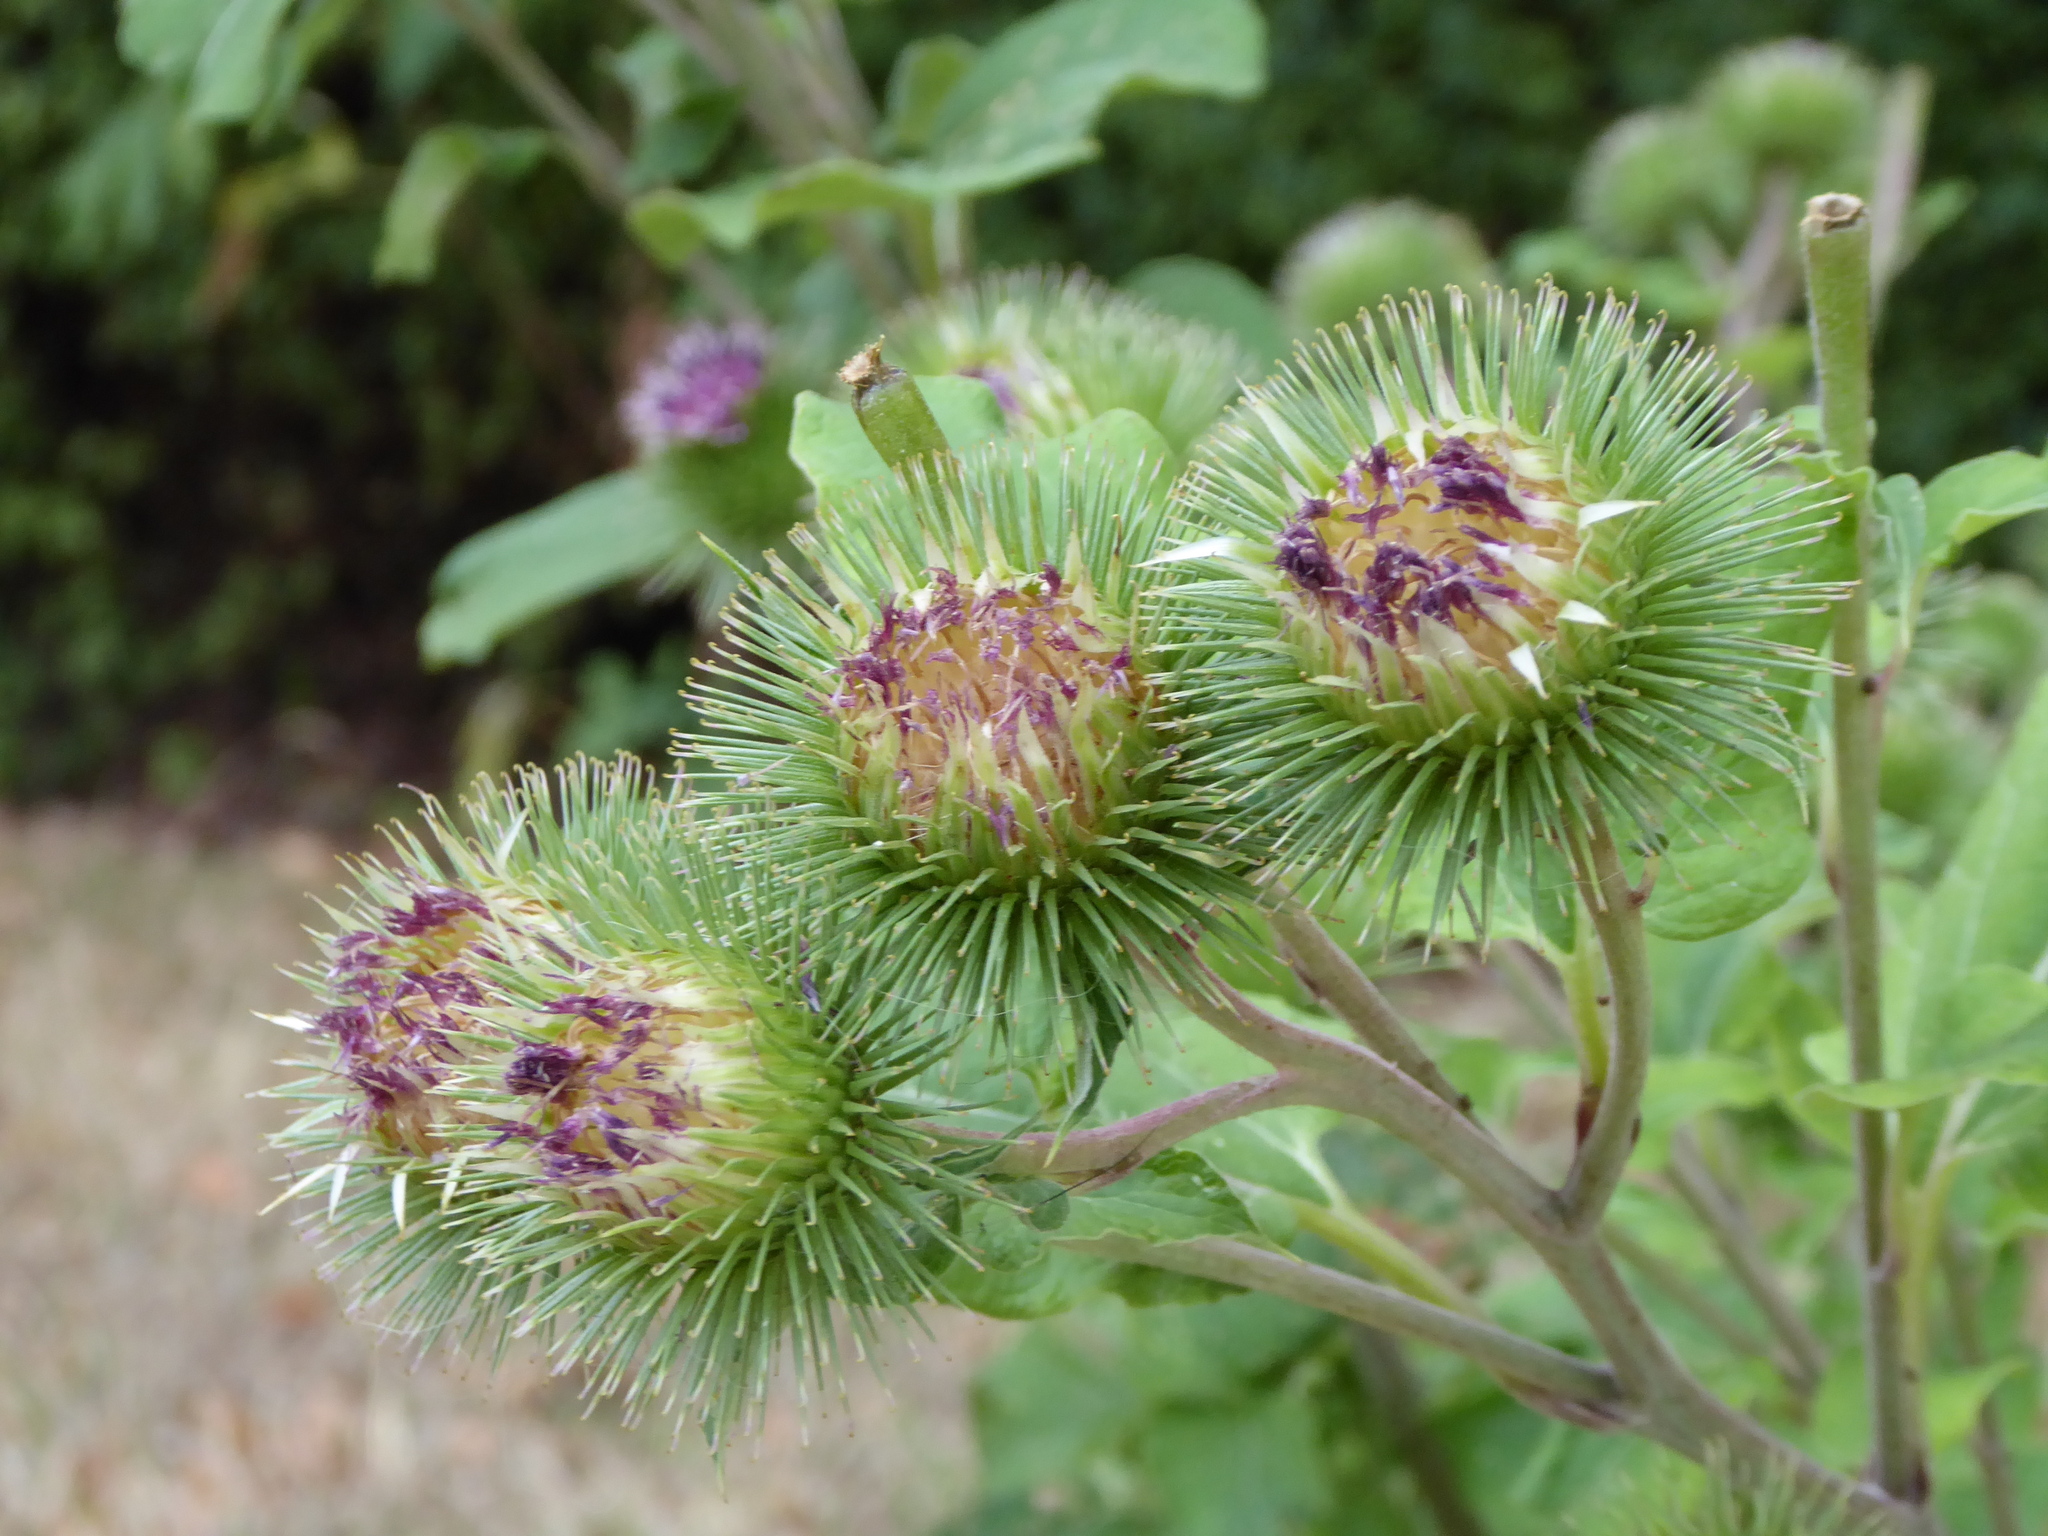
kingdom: Plantae
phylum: Tracheophyta
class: Magnoliopsida
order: Asterales
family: Asteraceae
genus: Arctium
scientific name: Arctium lappa
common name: Greater burdock
